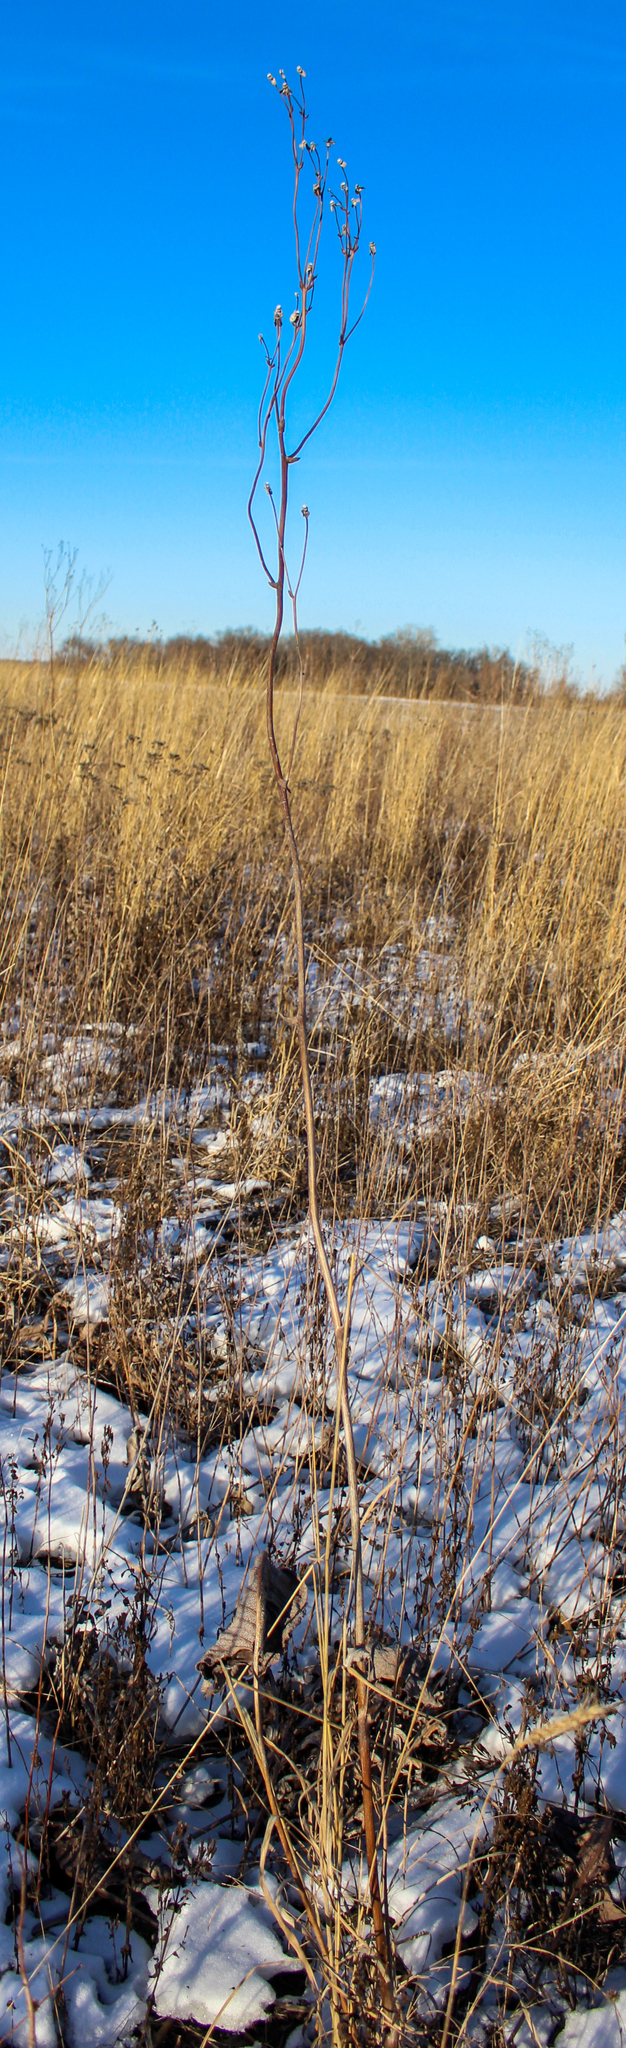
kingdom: Plantae
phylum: Tracheophyta
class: Magnoliopsida
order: Asterales
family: Asteraceae
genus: Silphium
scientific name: Silphium terebinthinaceum
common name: Basal-leaf rosinweed
